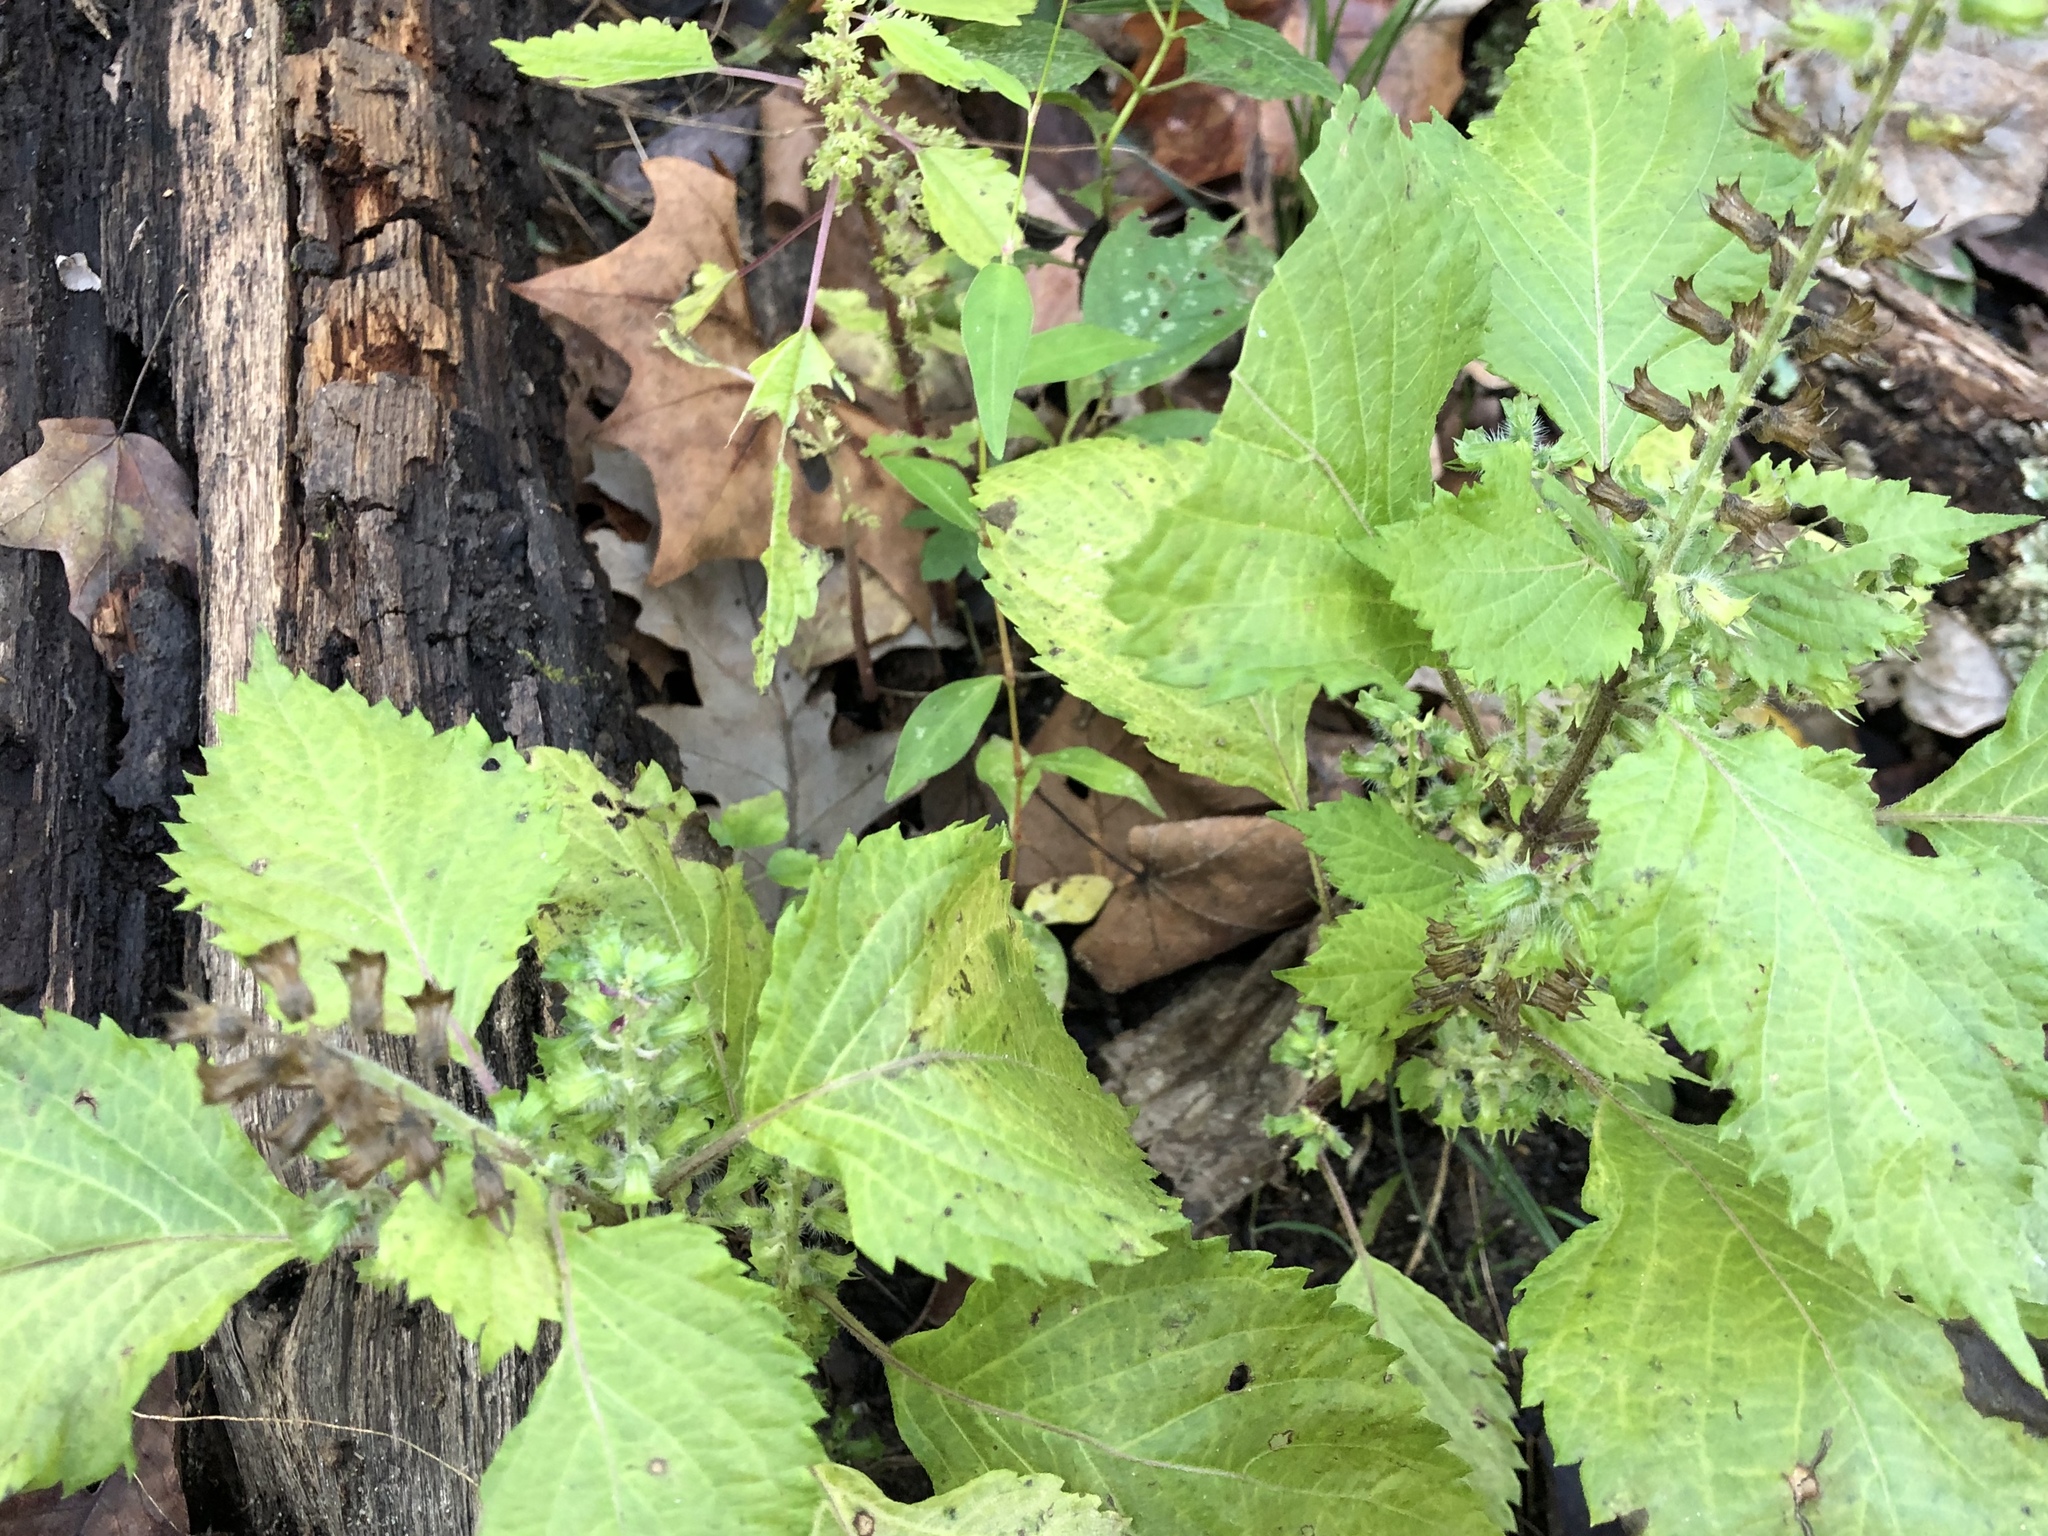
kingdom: Plantae
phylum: Tracheophyta
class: Magnoliopsida
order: Lamiales
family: Lamiaceae
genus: Perilla
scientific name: Perilla frutescens
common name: Perilla
